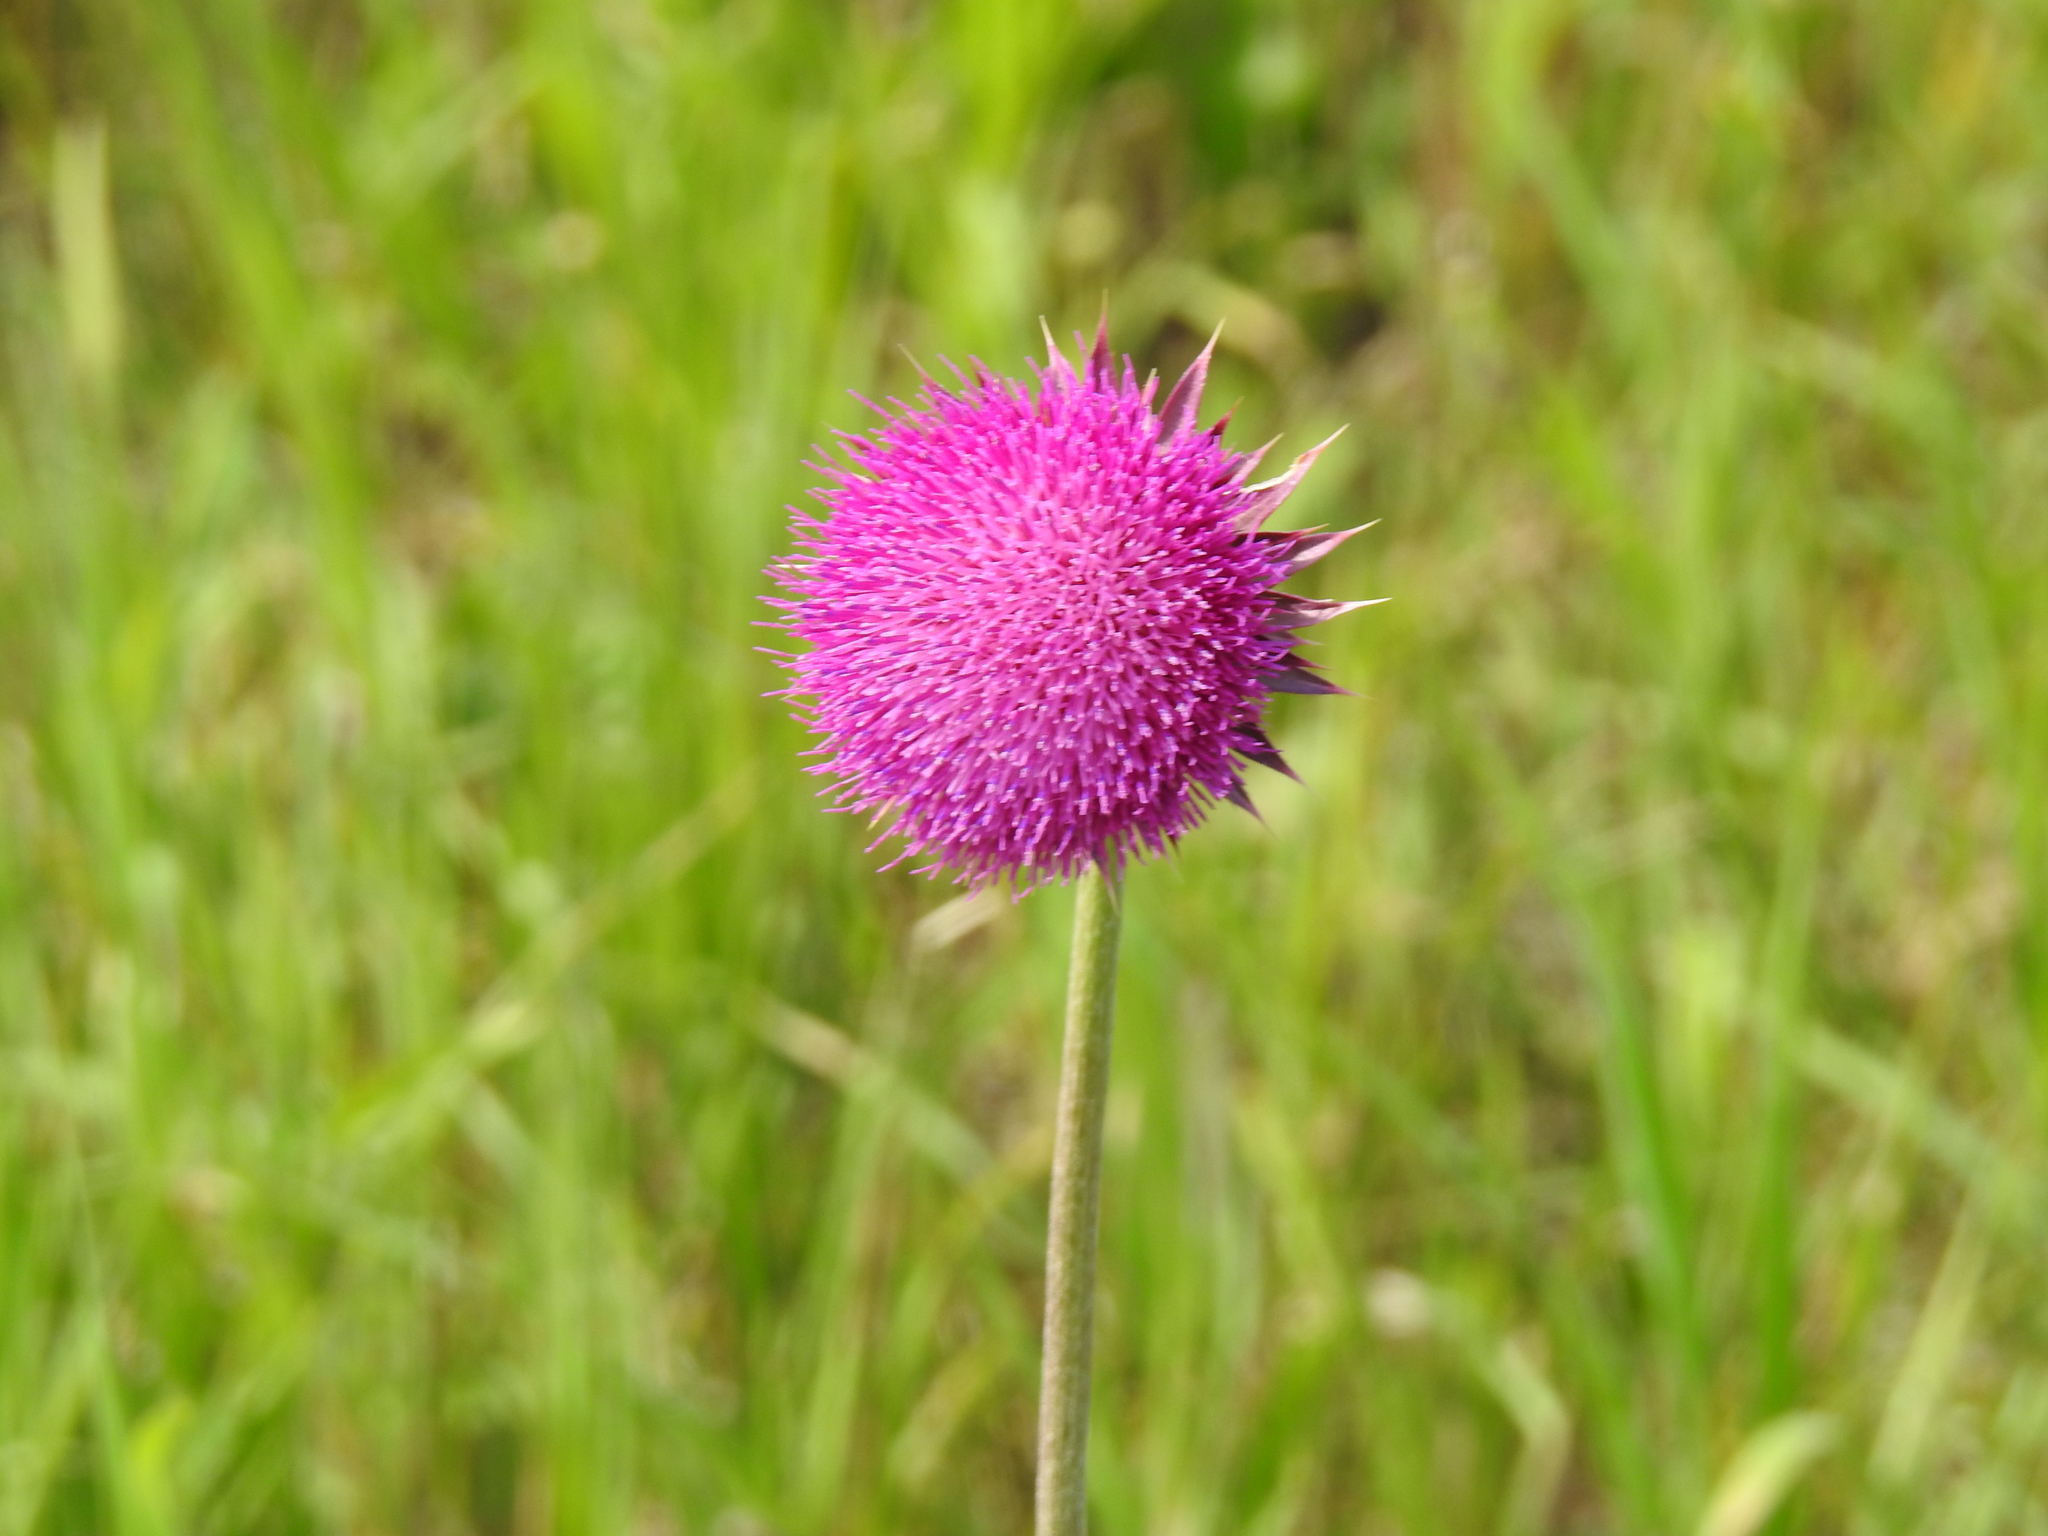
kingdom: Plantae
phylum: Tracheophyta
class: Magnoliopsida
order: Asterales
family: Asteraceae
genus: Carduus
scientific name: Carduus nutans
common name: Musk thistle
